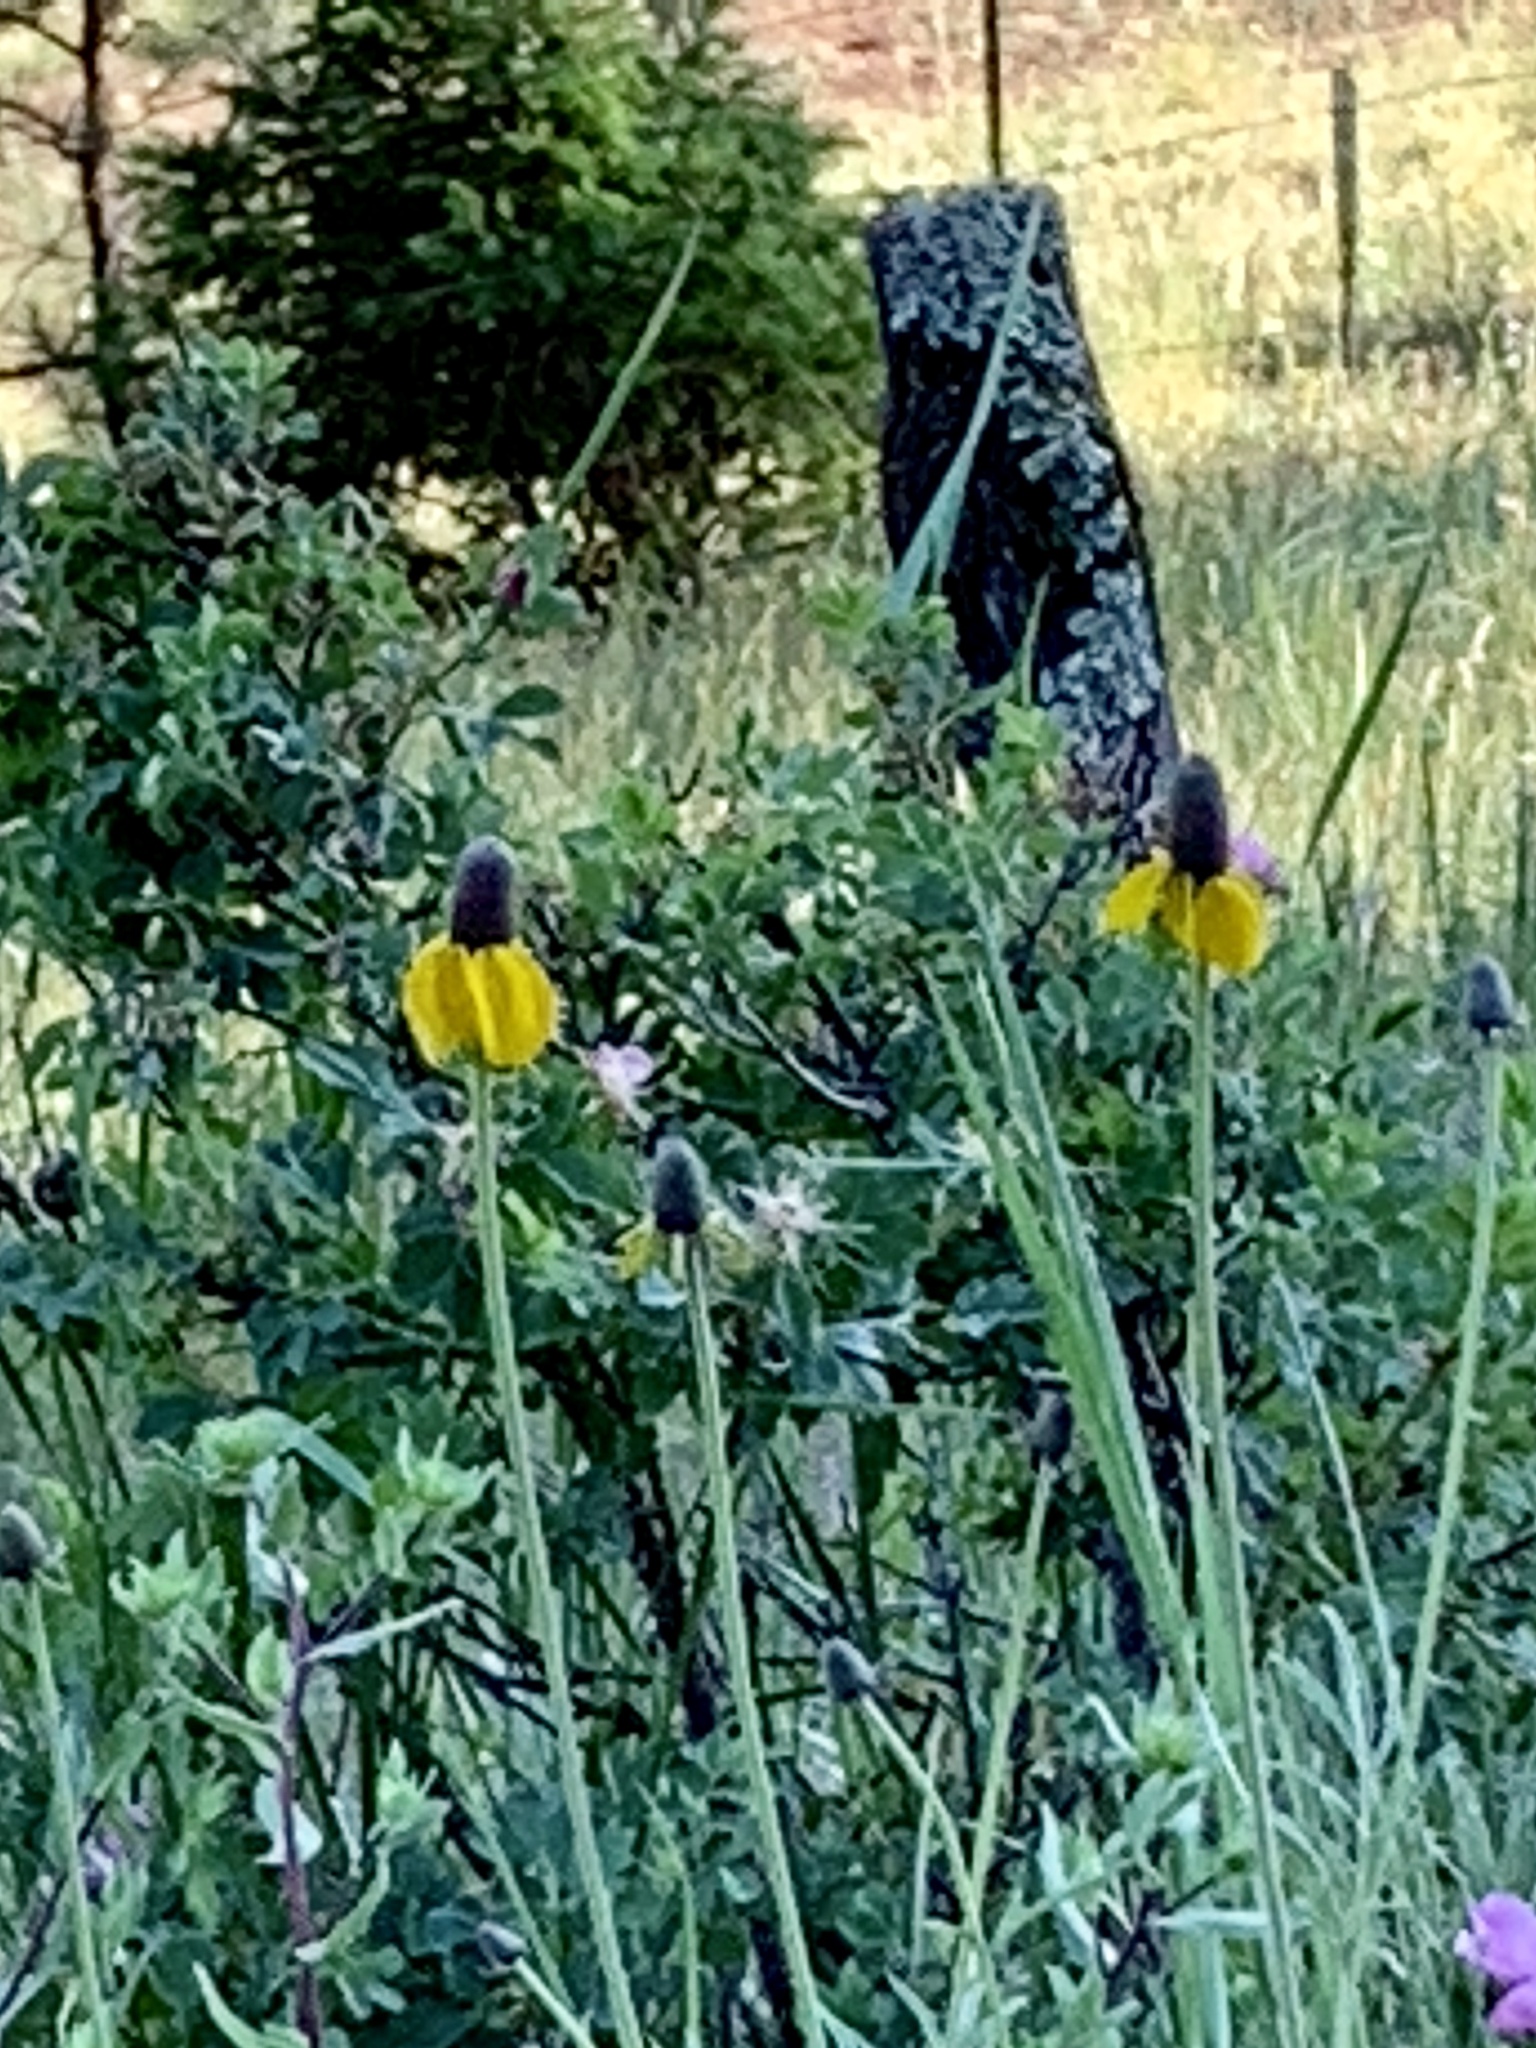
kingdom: Plantae
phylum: Tracheophyta
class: Magnoliopsida
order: Asterales
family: Asteraceae
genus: Ratibida
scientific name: Ratibida columnifera
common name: Prairie coneflower
